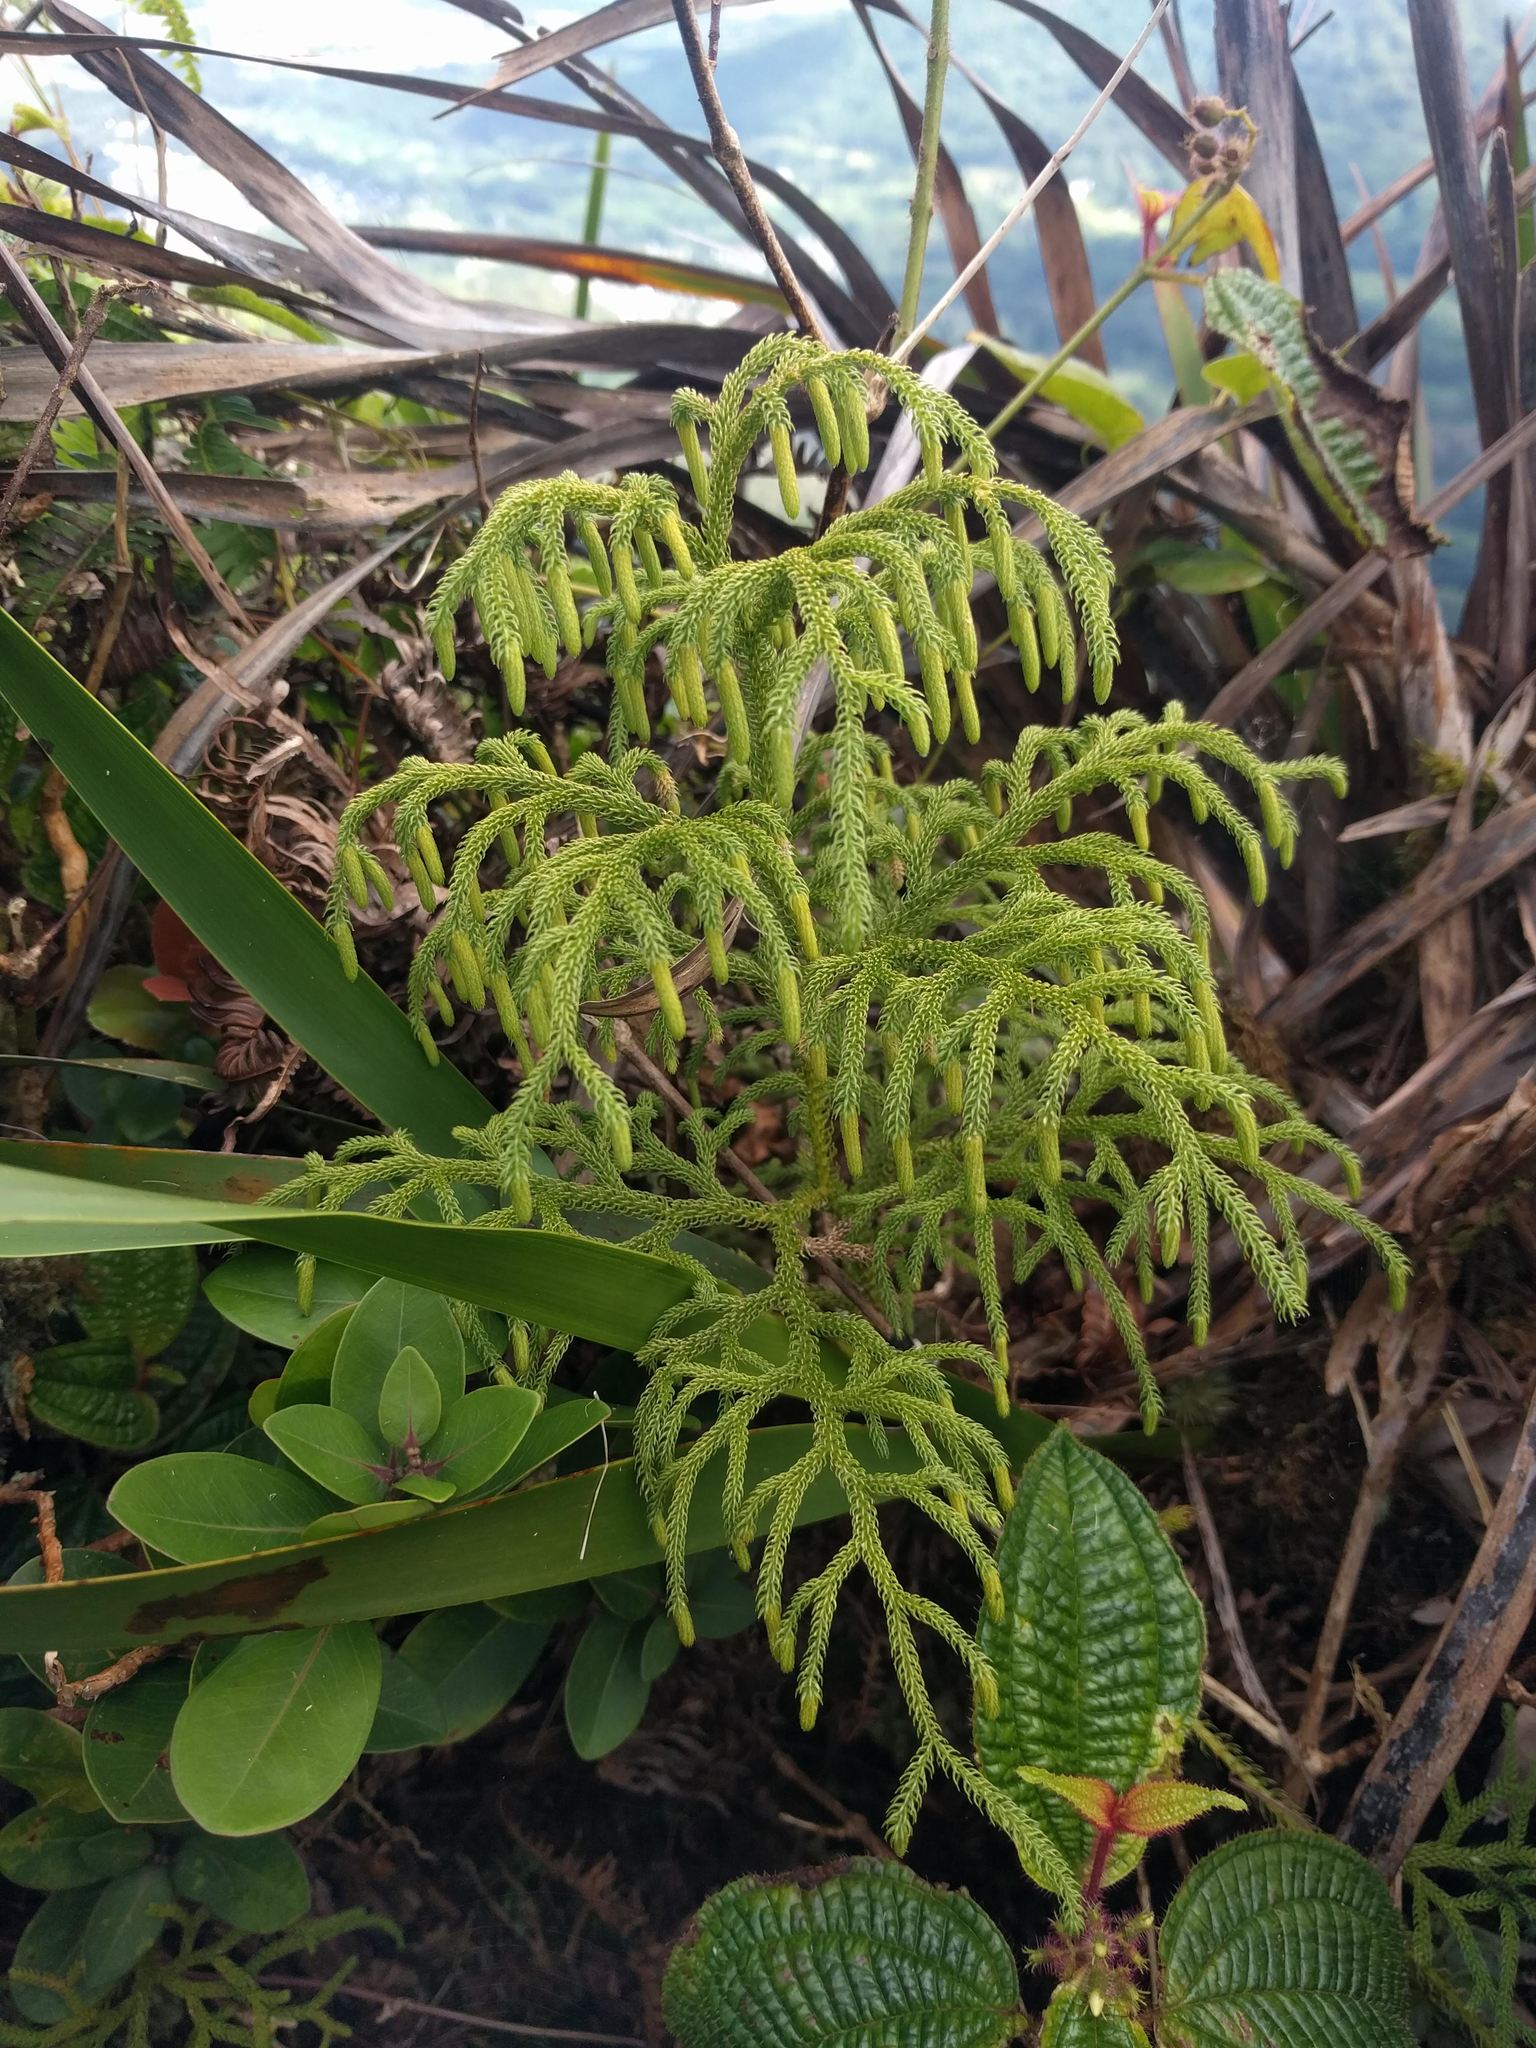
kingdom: Plantae
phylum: Tracheophyta
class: Lycopodiopsida
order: Lycopodiales
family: Lycopodiaceae
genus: Palhinhaea
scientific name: Palhinhaea cernua
